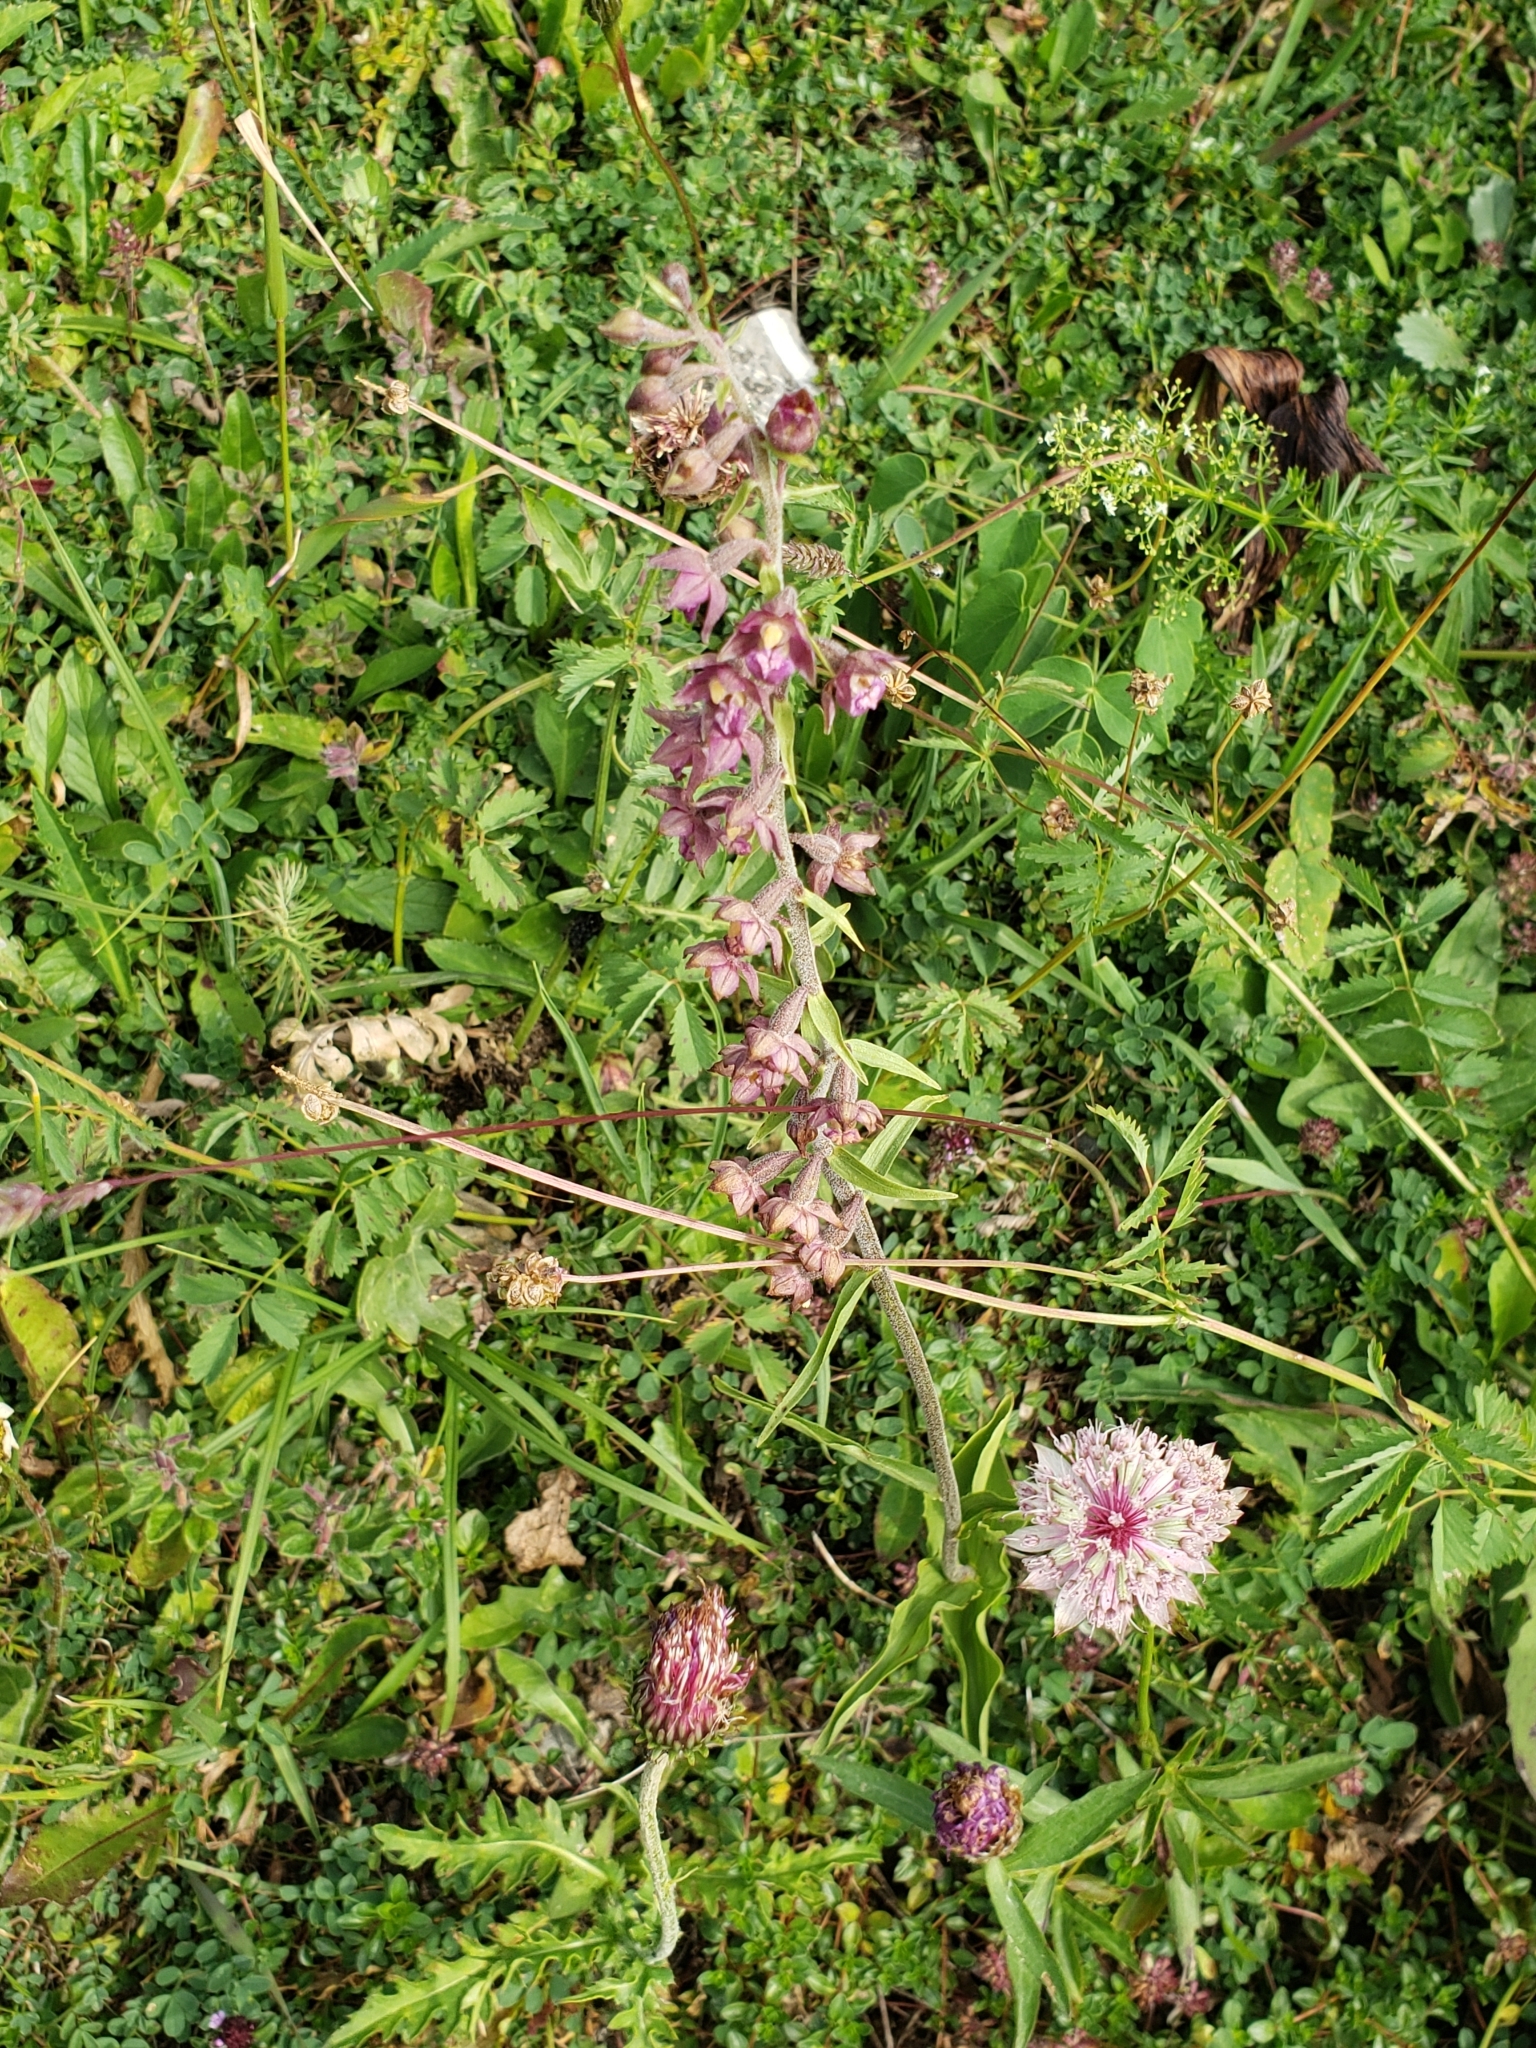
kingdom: Plantae
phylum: Tracheophyta
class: Liliopsida
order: Asparagales
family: Orchidaceae
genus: Epipactis
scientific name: Epipactis atrorubens
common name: Dark-red helleborine
